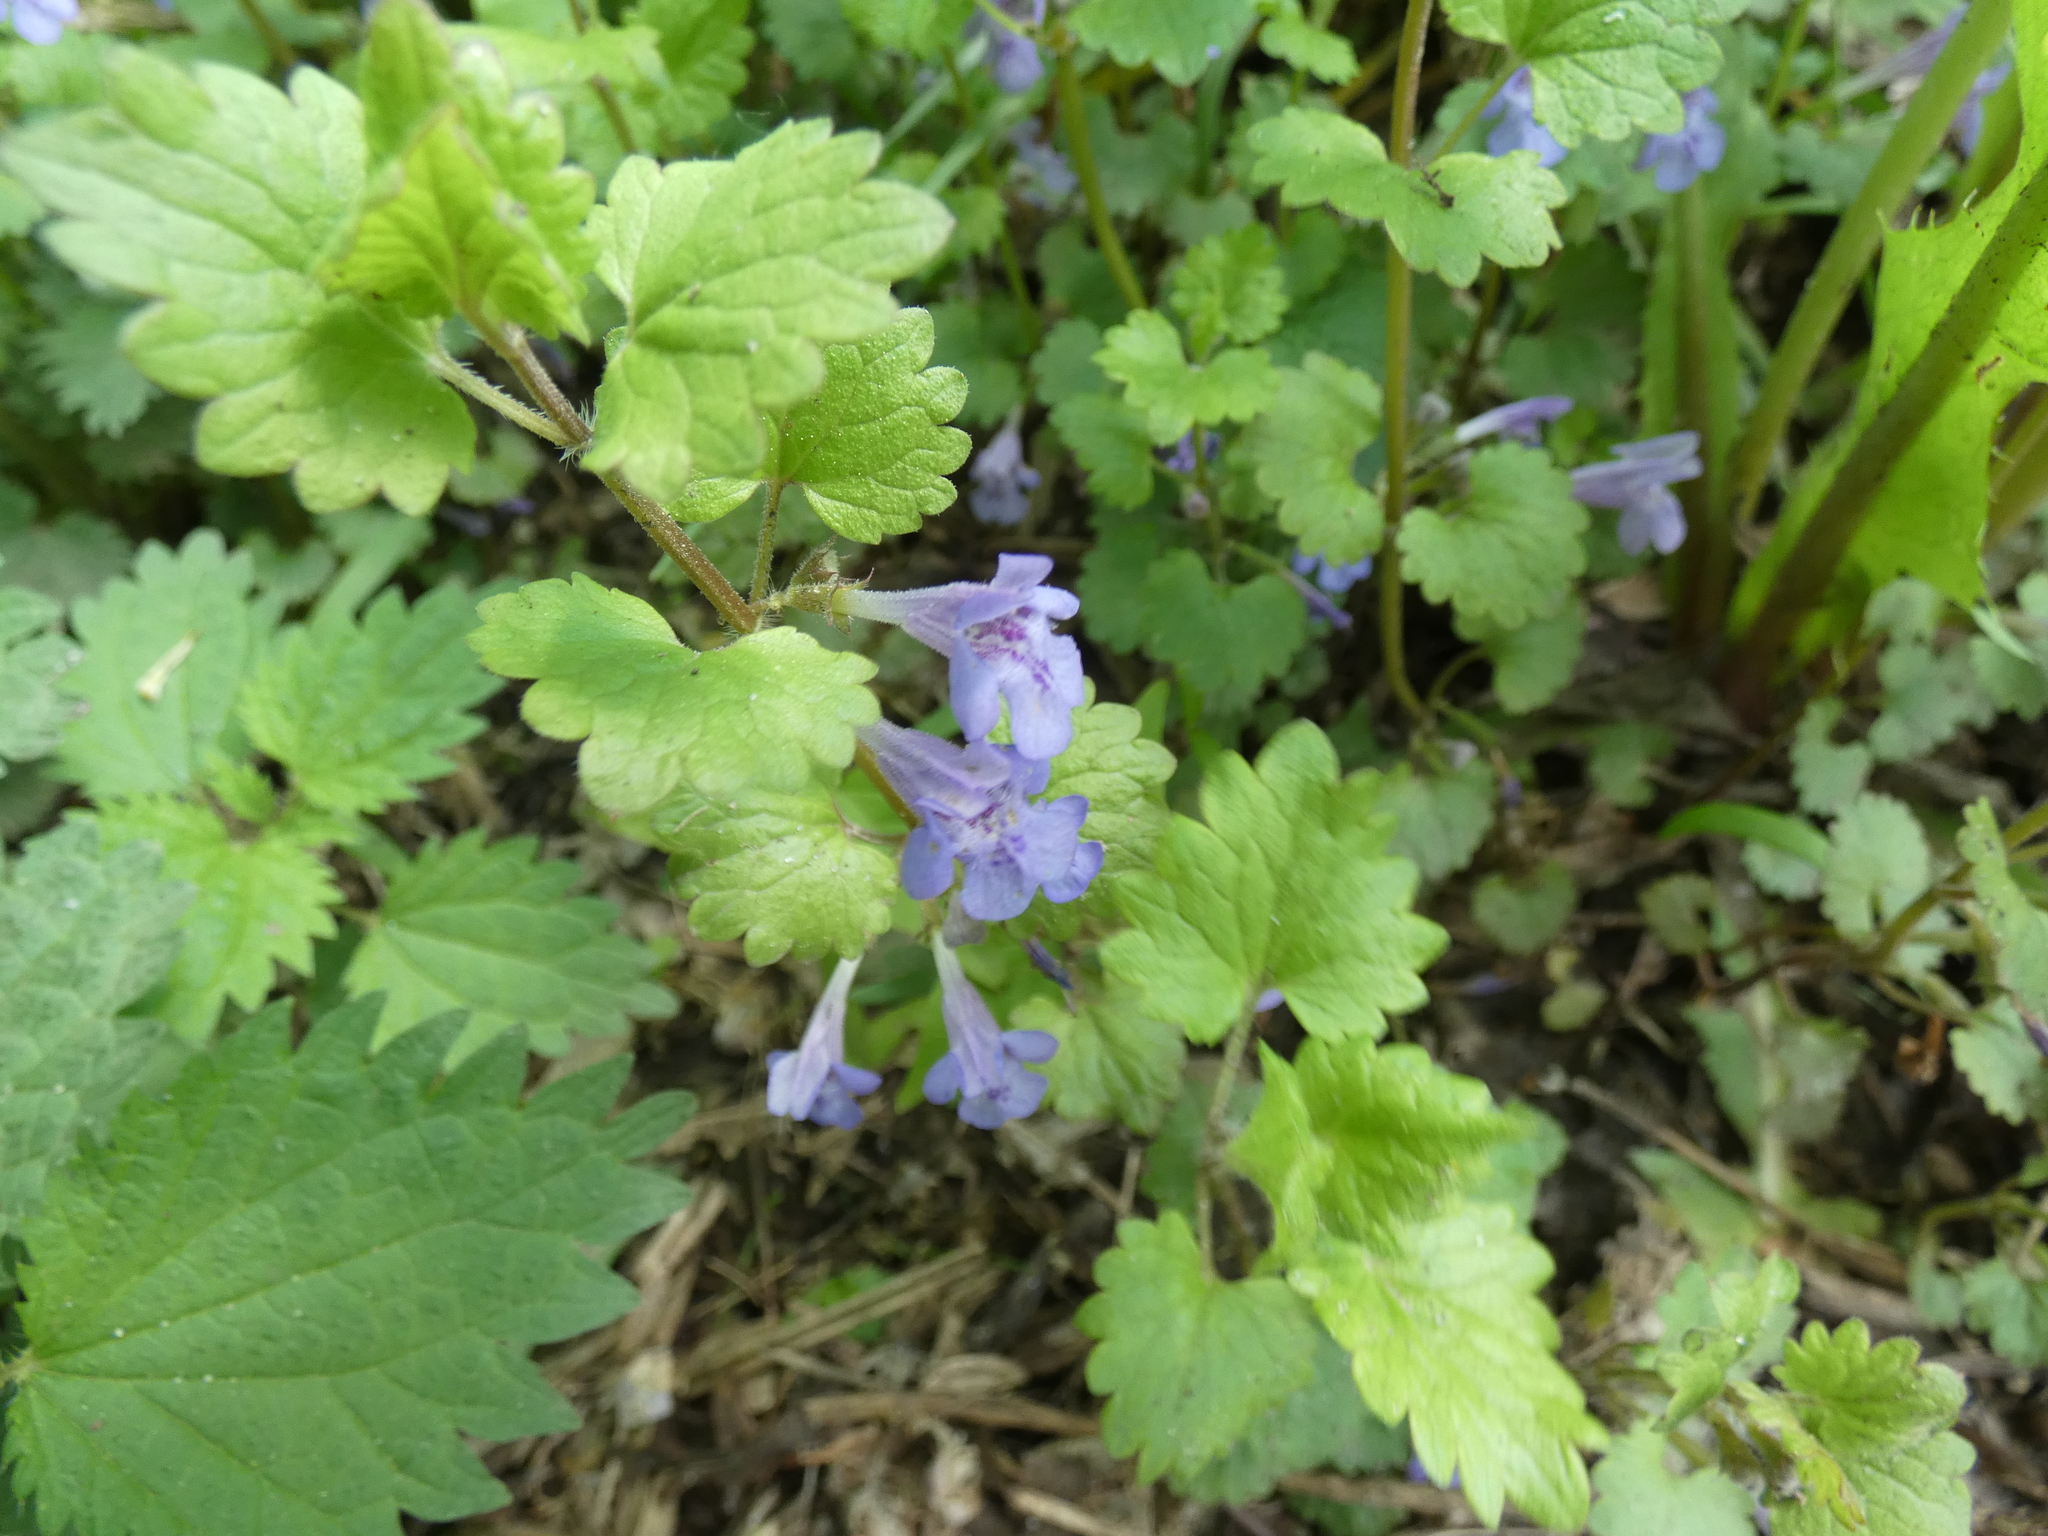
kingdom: Plantae
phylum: Tracheophyta
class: Magnoliopsida
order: Lamiales
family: Lamiaceae
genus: Glechoma
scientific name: Glechoma hederacea
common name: Ground ivy
